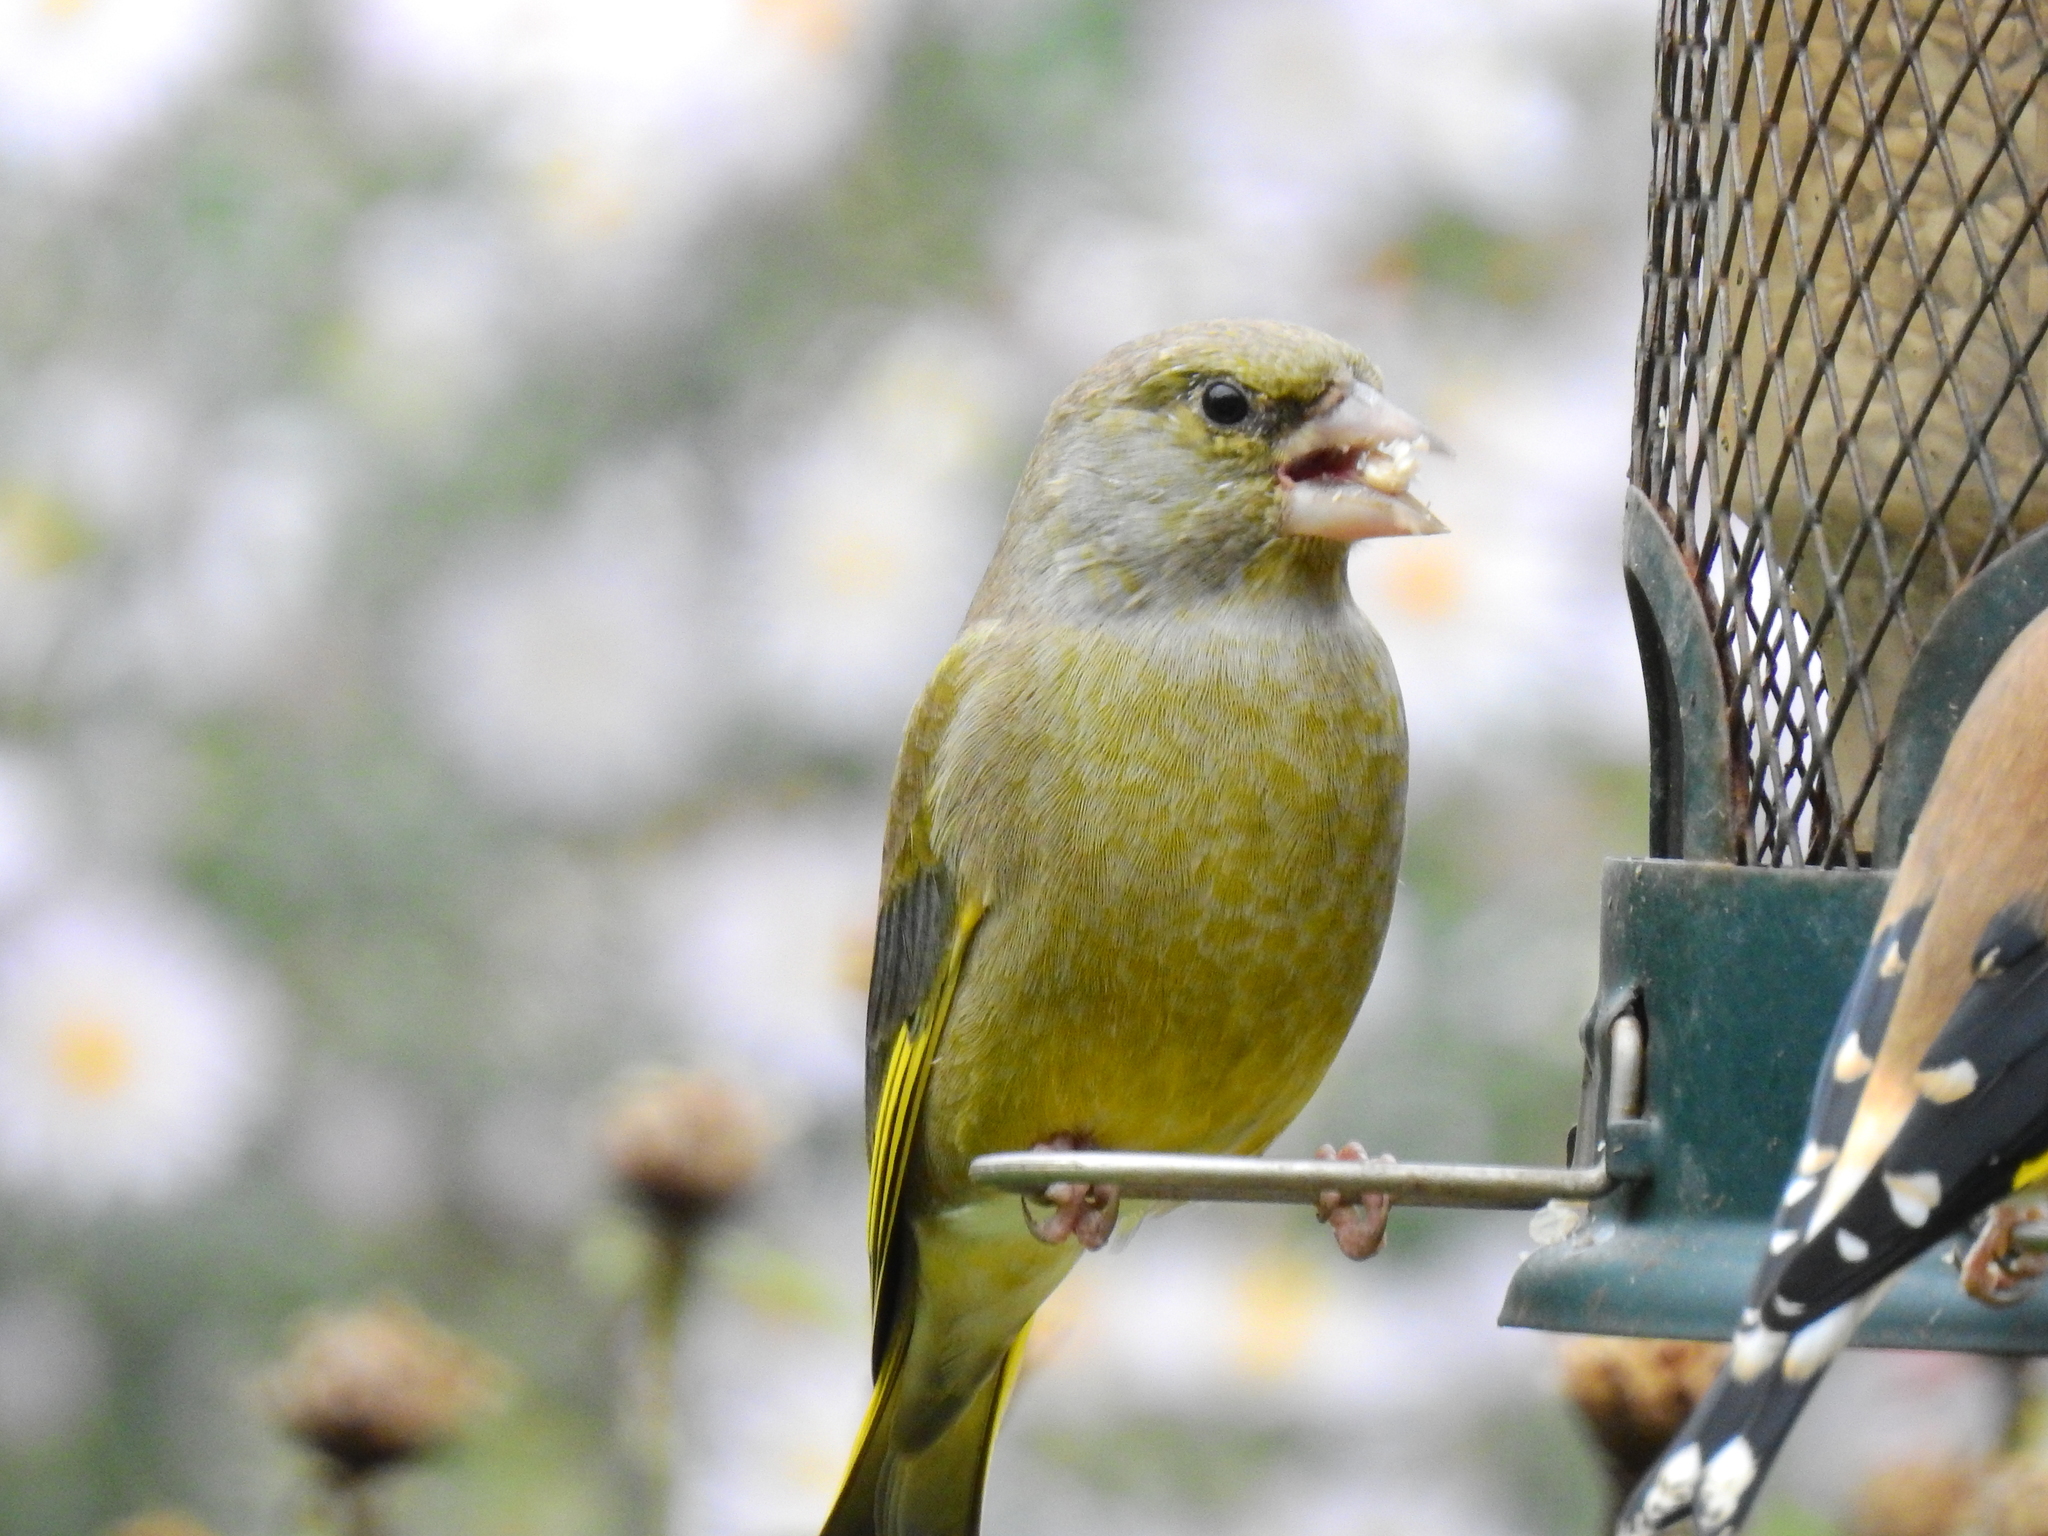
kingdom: Plantae
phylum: Tracheophyta
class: Liliopsida
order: Poales
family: Poaceae
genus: Chloris
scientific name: Chloris chloris
